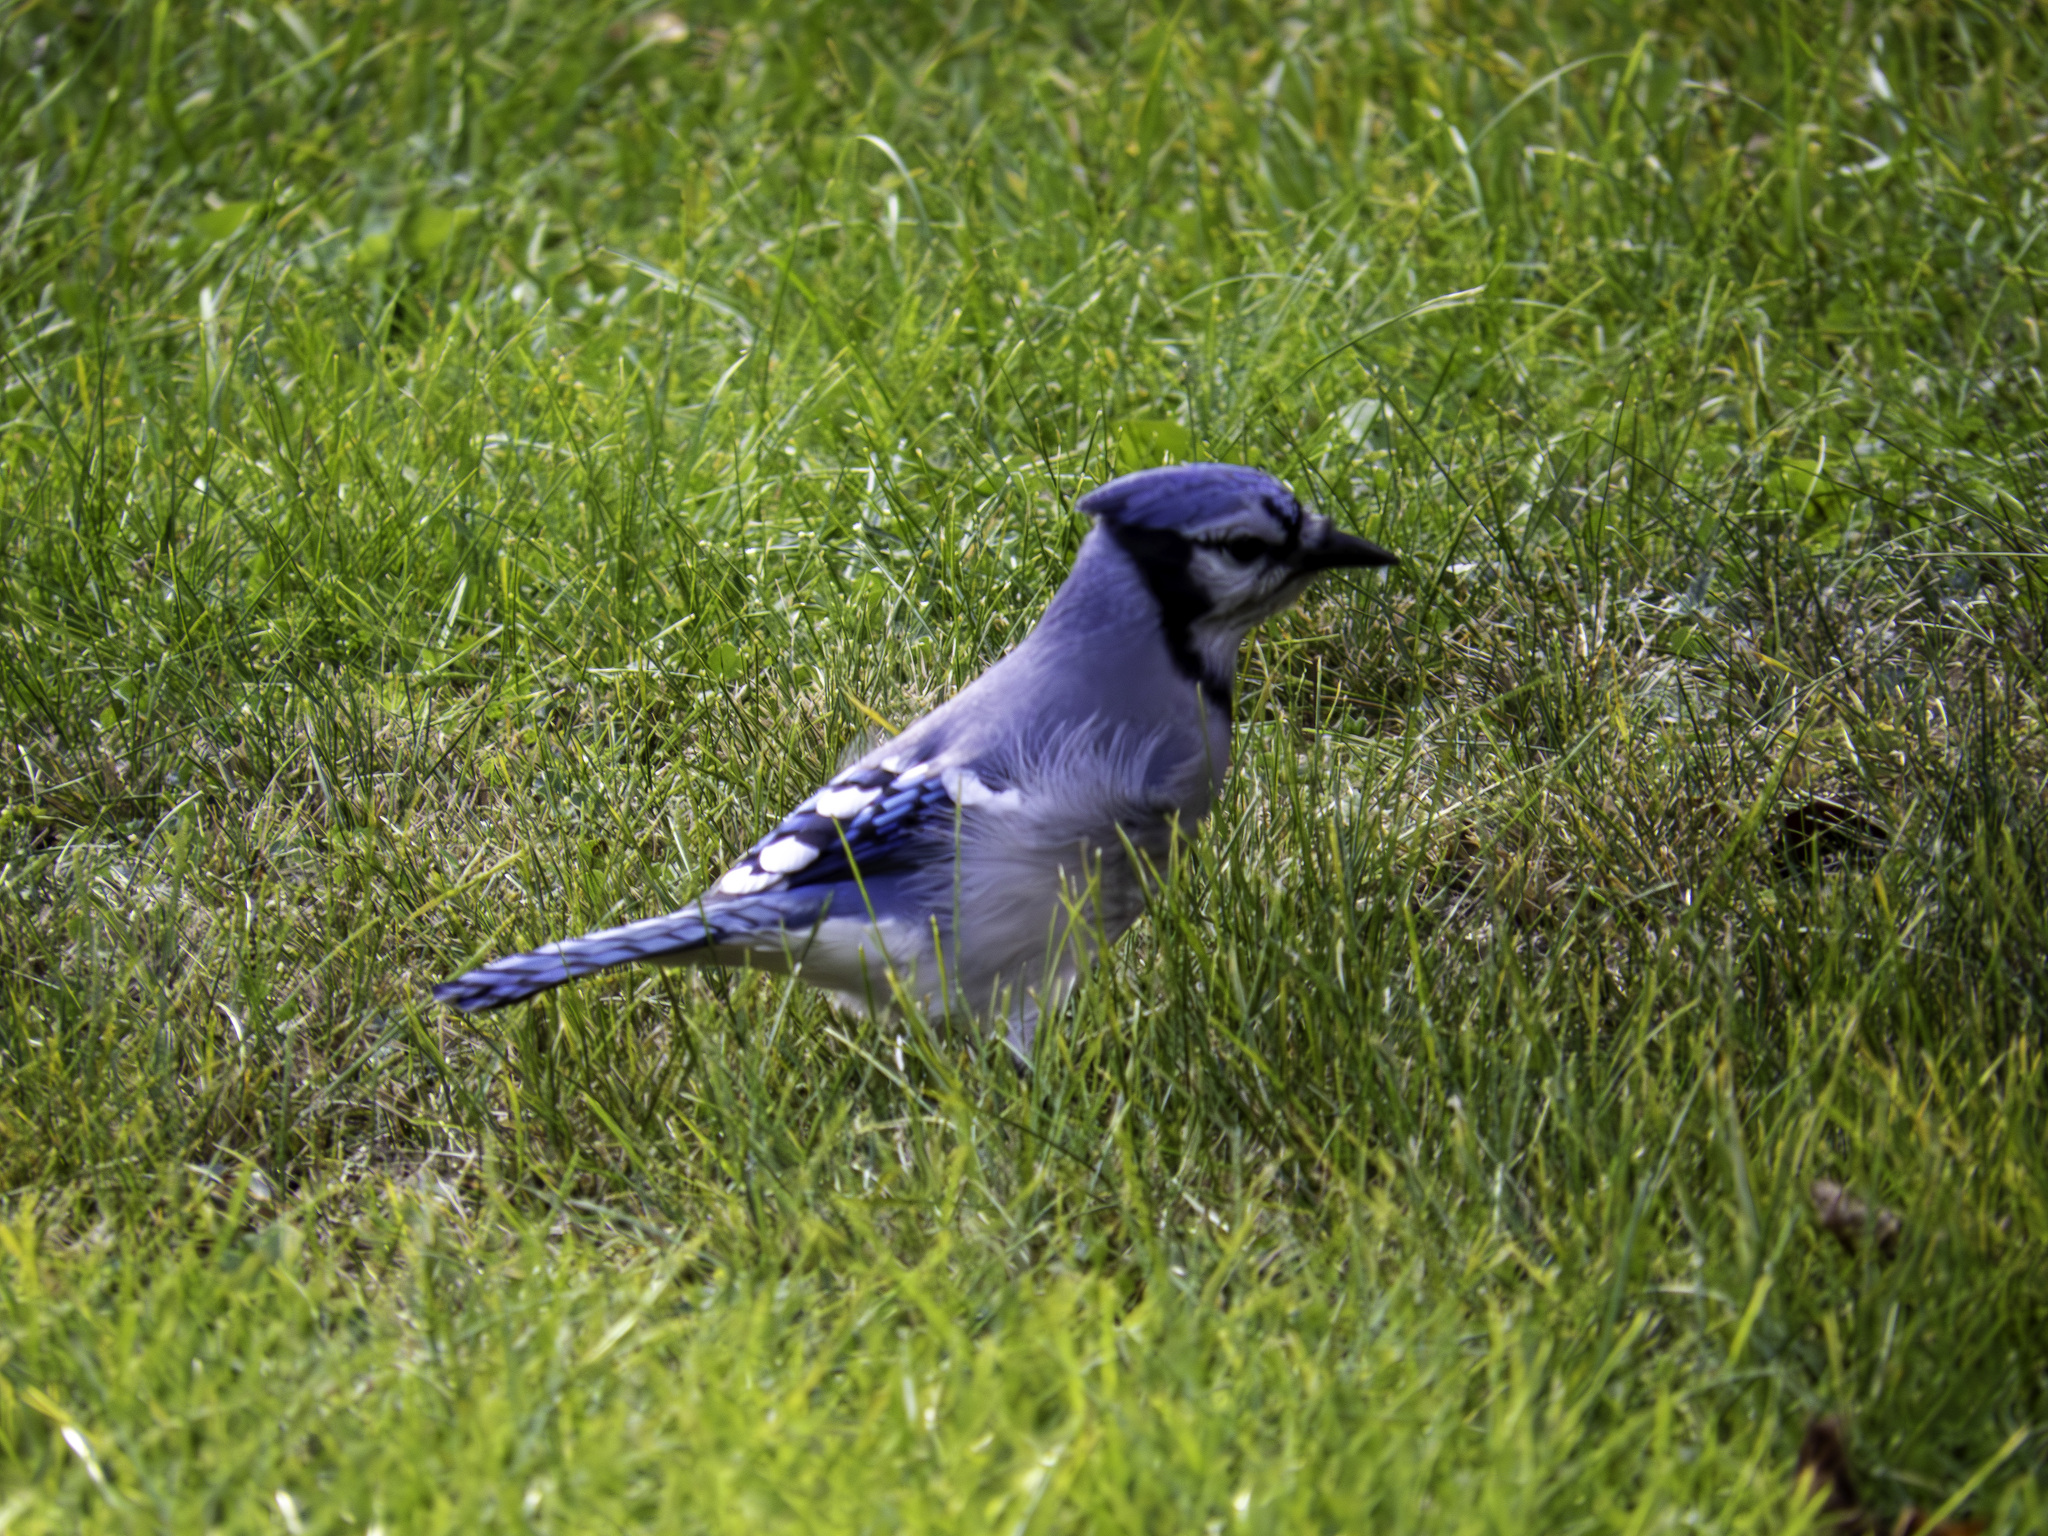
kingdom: Animalia
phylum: Chordata
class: Aves
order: Passeriformes
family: Corvidae
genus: Cyanocitta
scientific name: Cyanocitta cristata
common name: Blue jay
